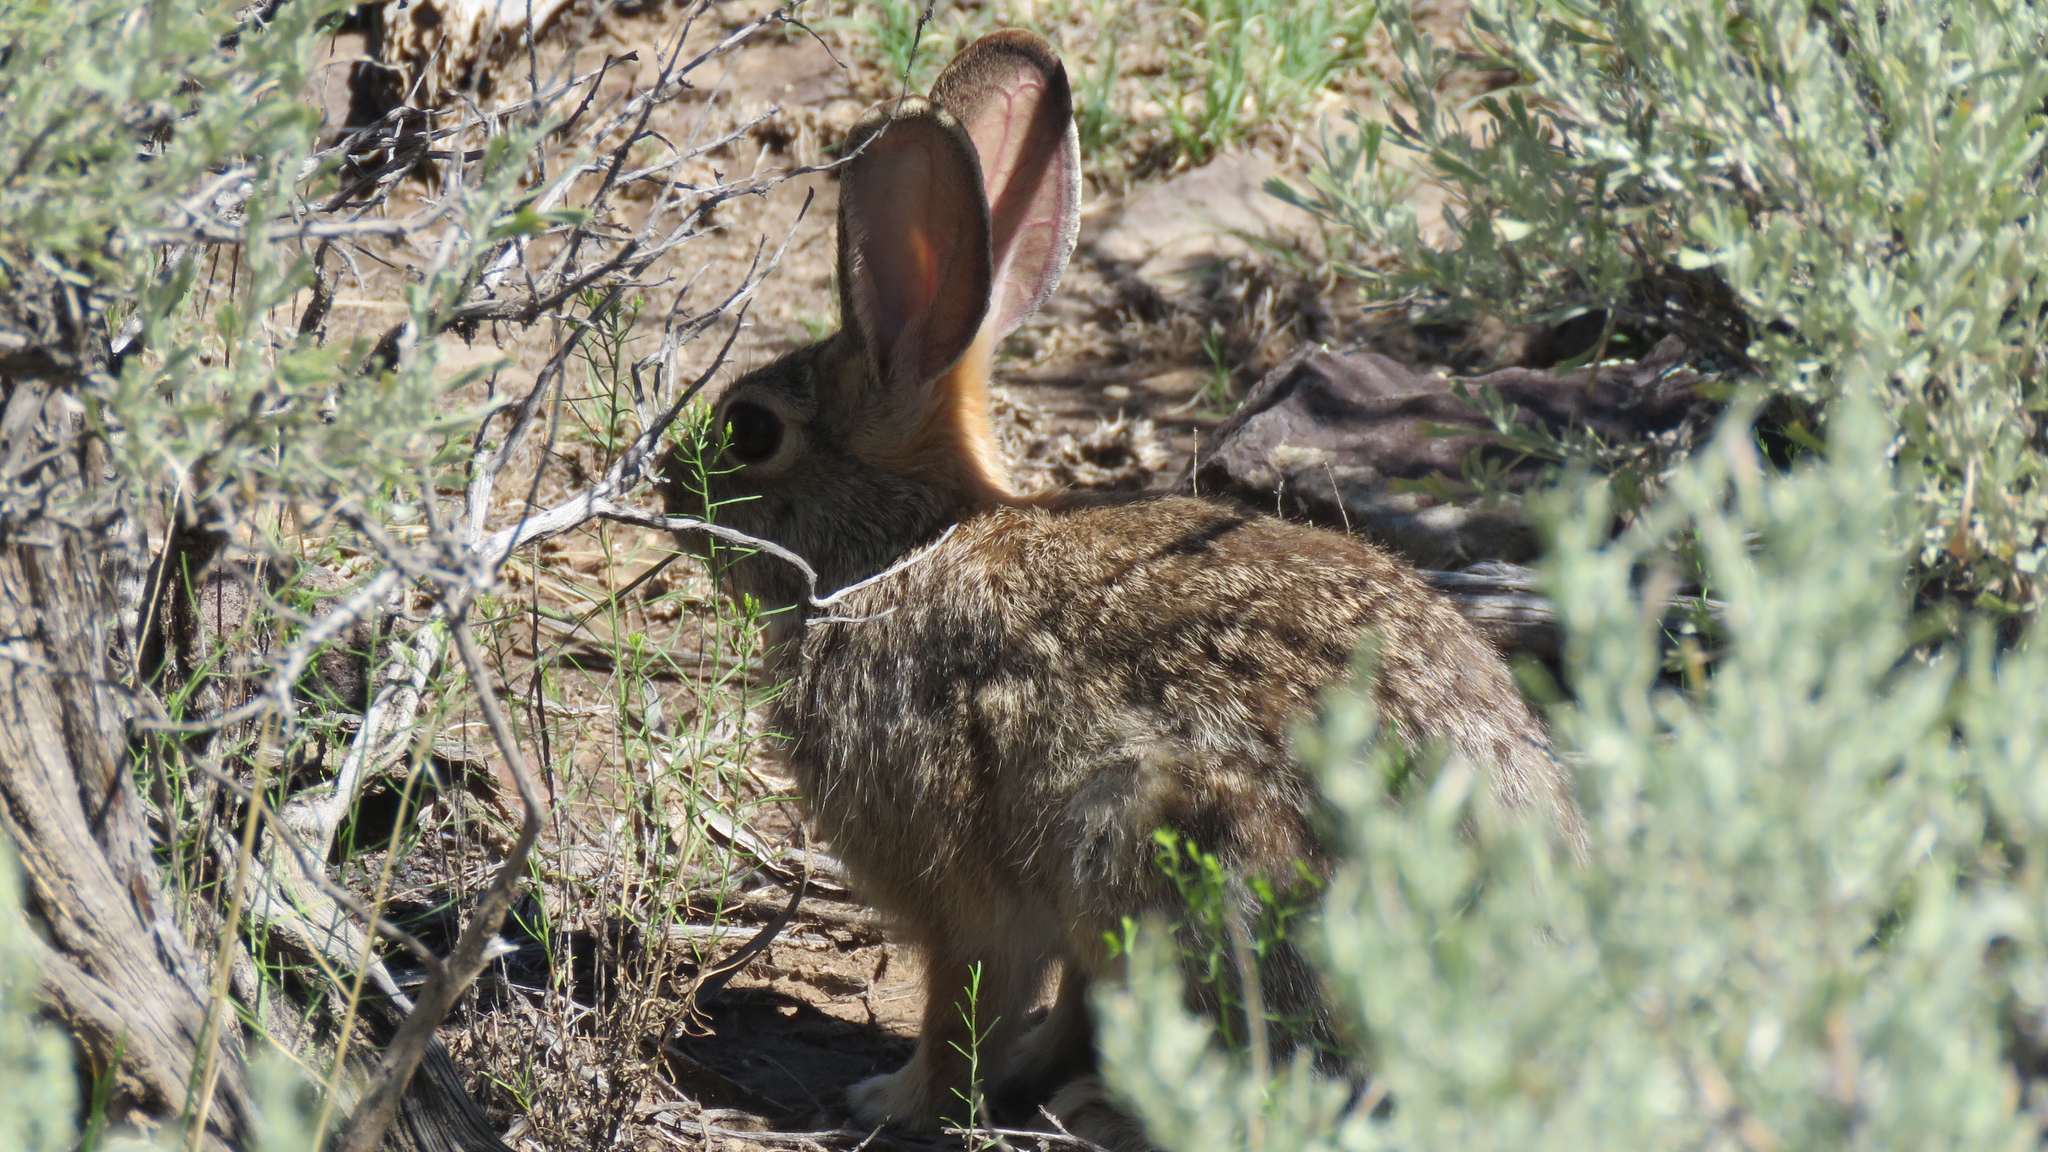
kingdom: Animalia
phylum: Chordata
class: Mammalia
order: Lagomorpha
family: Leporidae
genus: Sylvilagus
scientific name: Sylvilagus audubonii
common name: Desert cottontail
